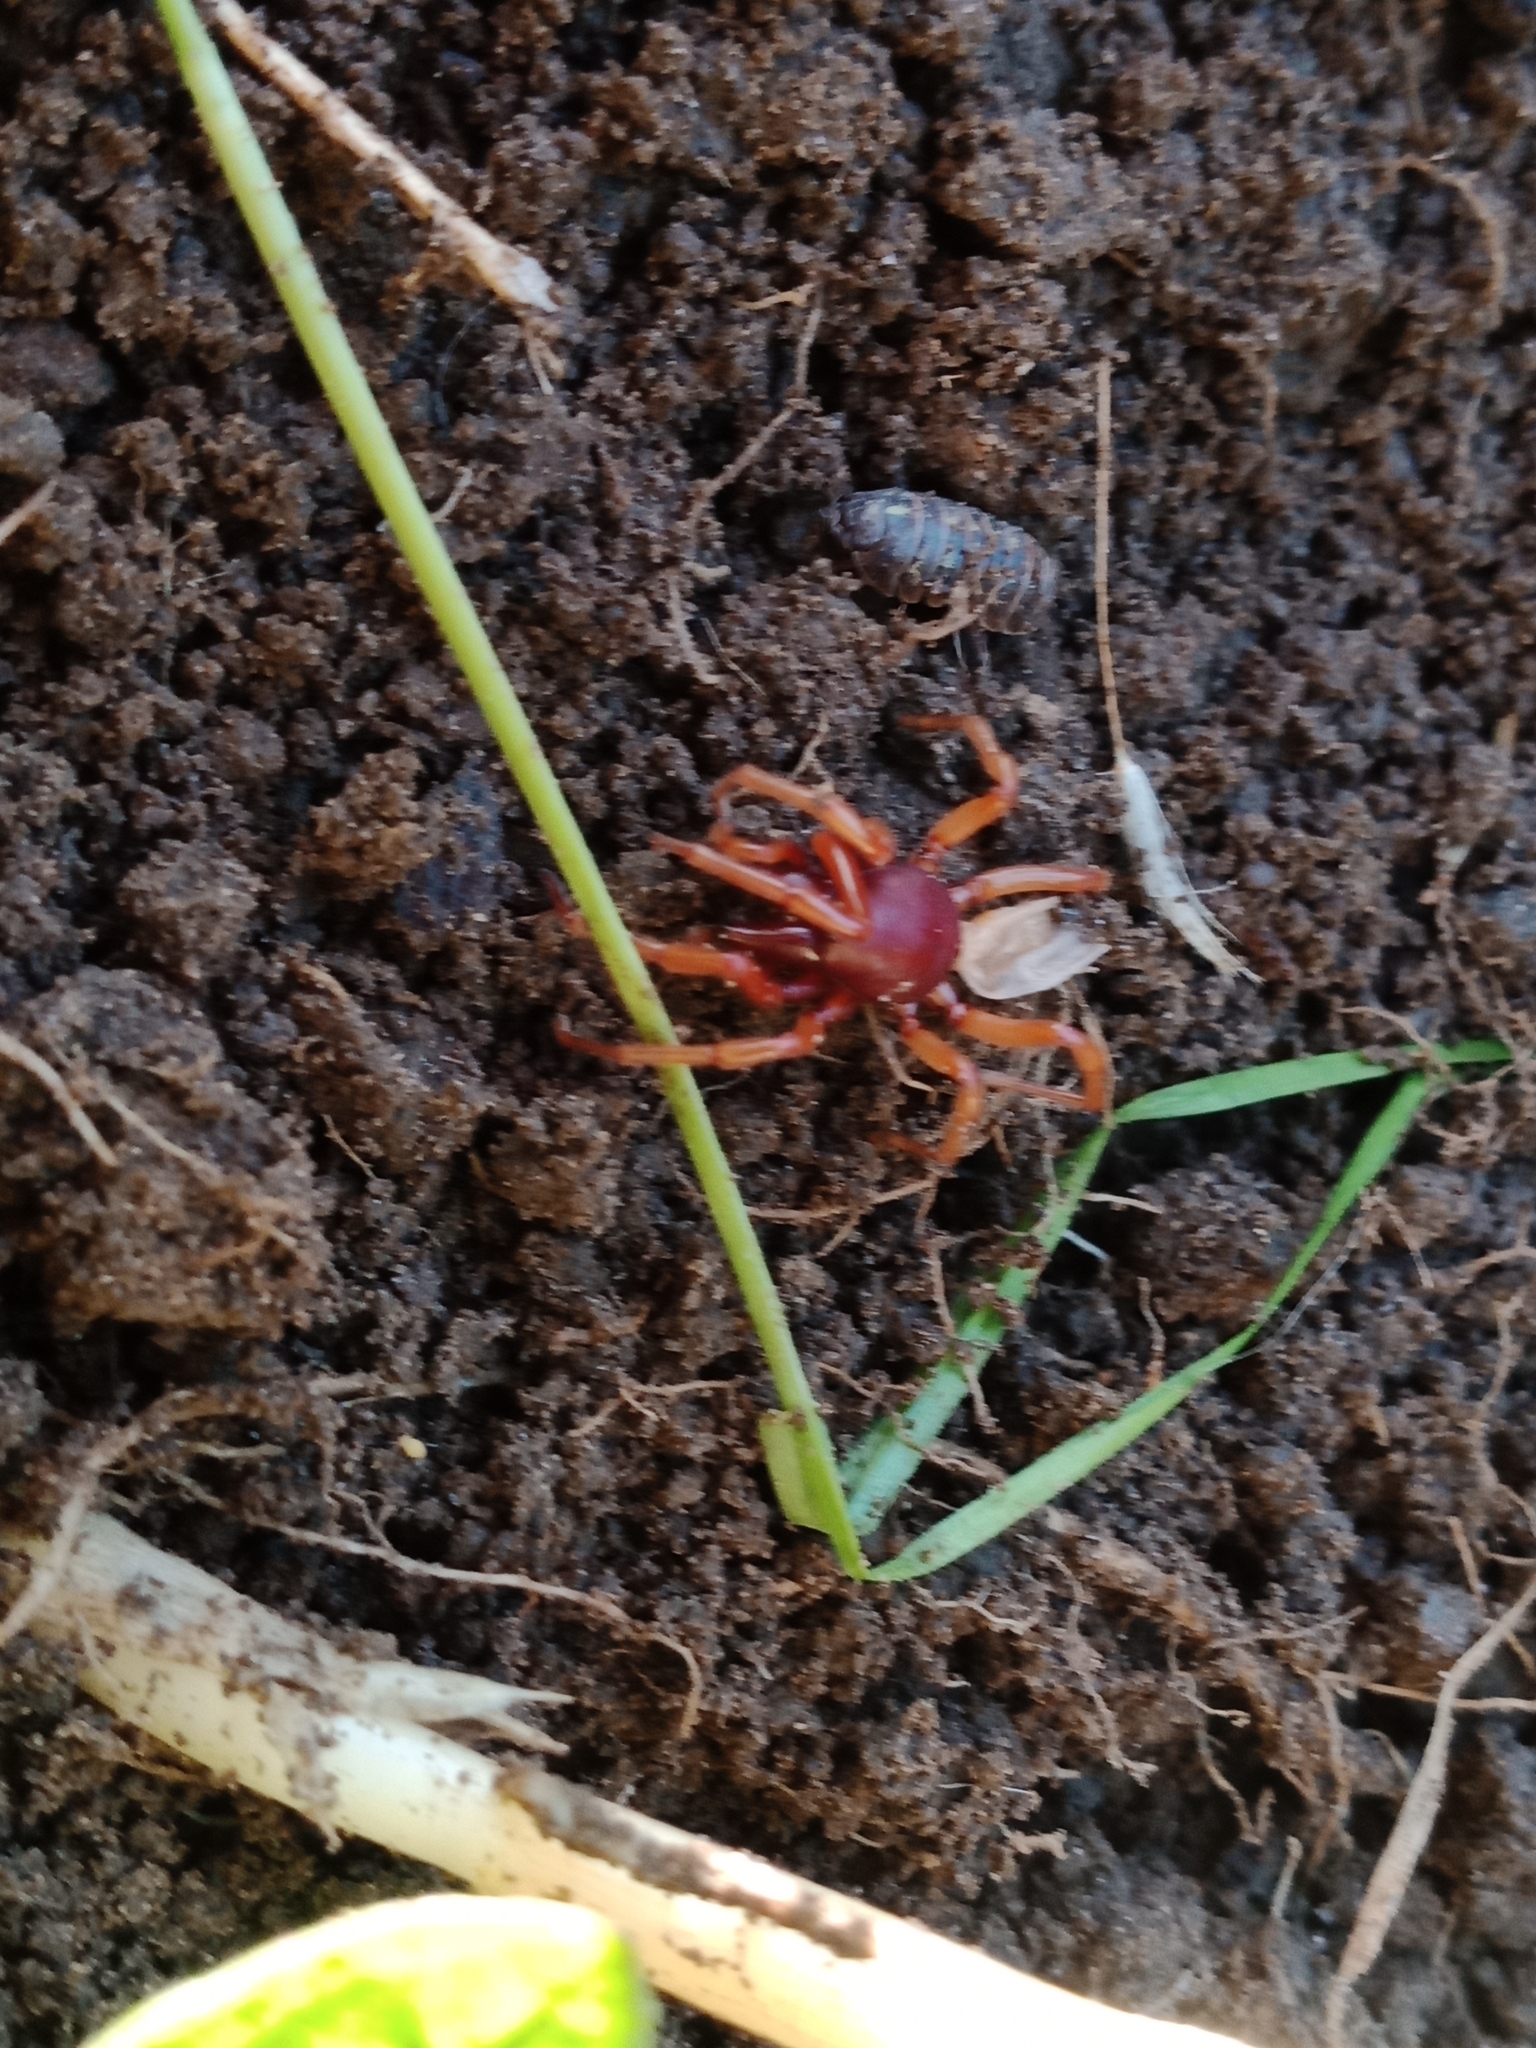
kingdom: Animalia
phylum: Arthropoda
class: Arachnida
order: Araneae
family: Dysderidae
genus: Dysdera
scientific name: Dysdera crocata
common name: Woodlouse spider
